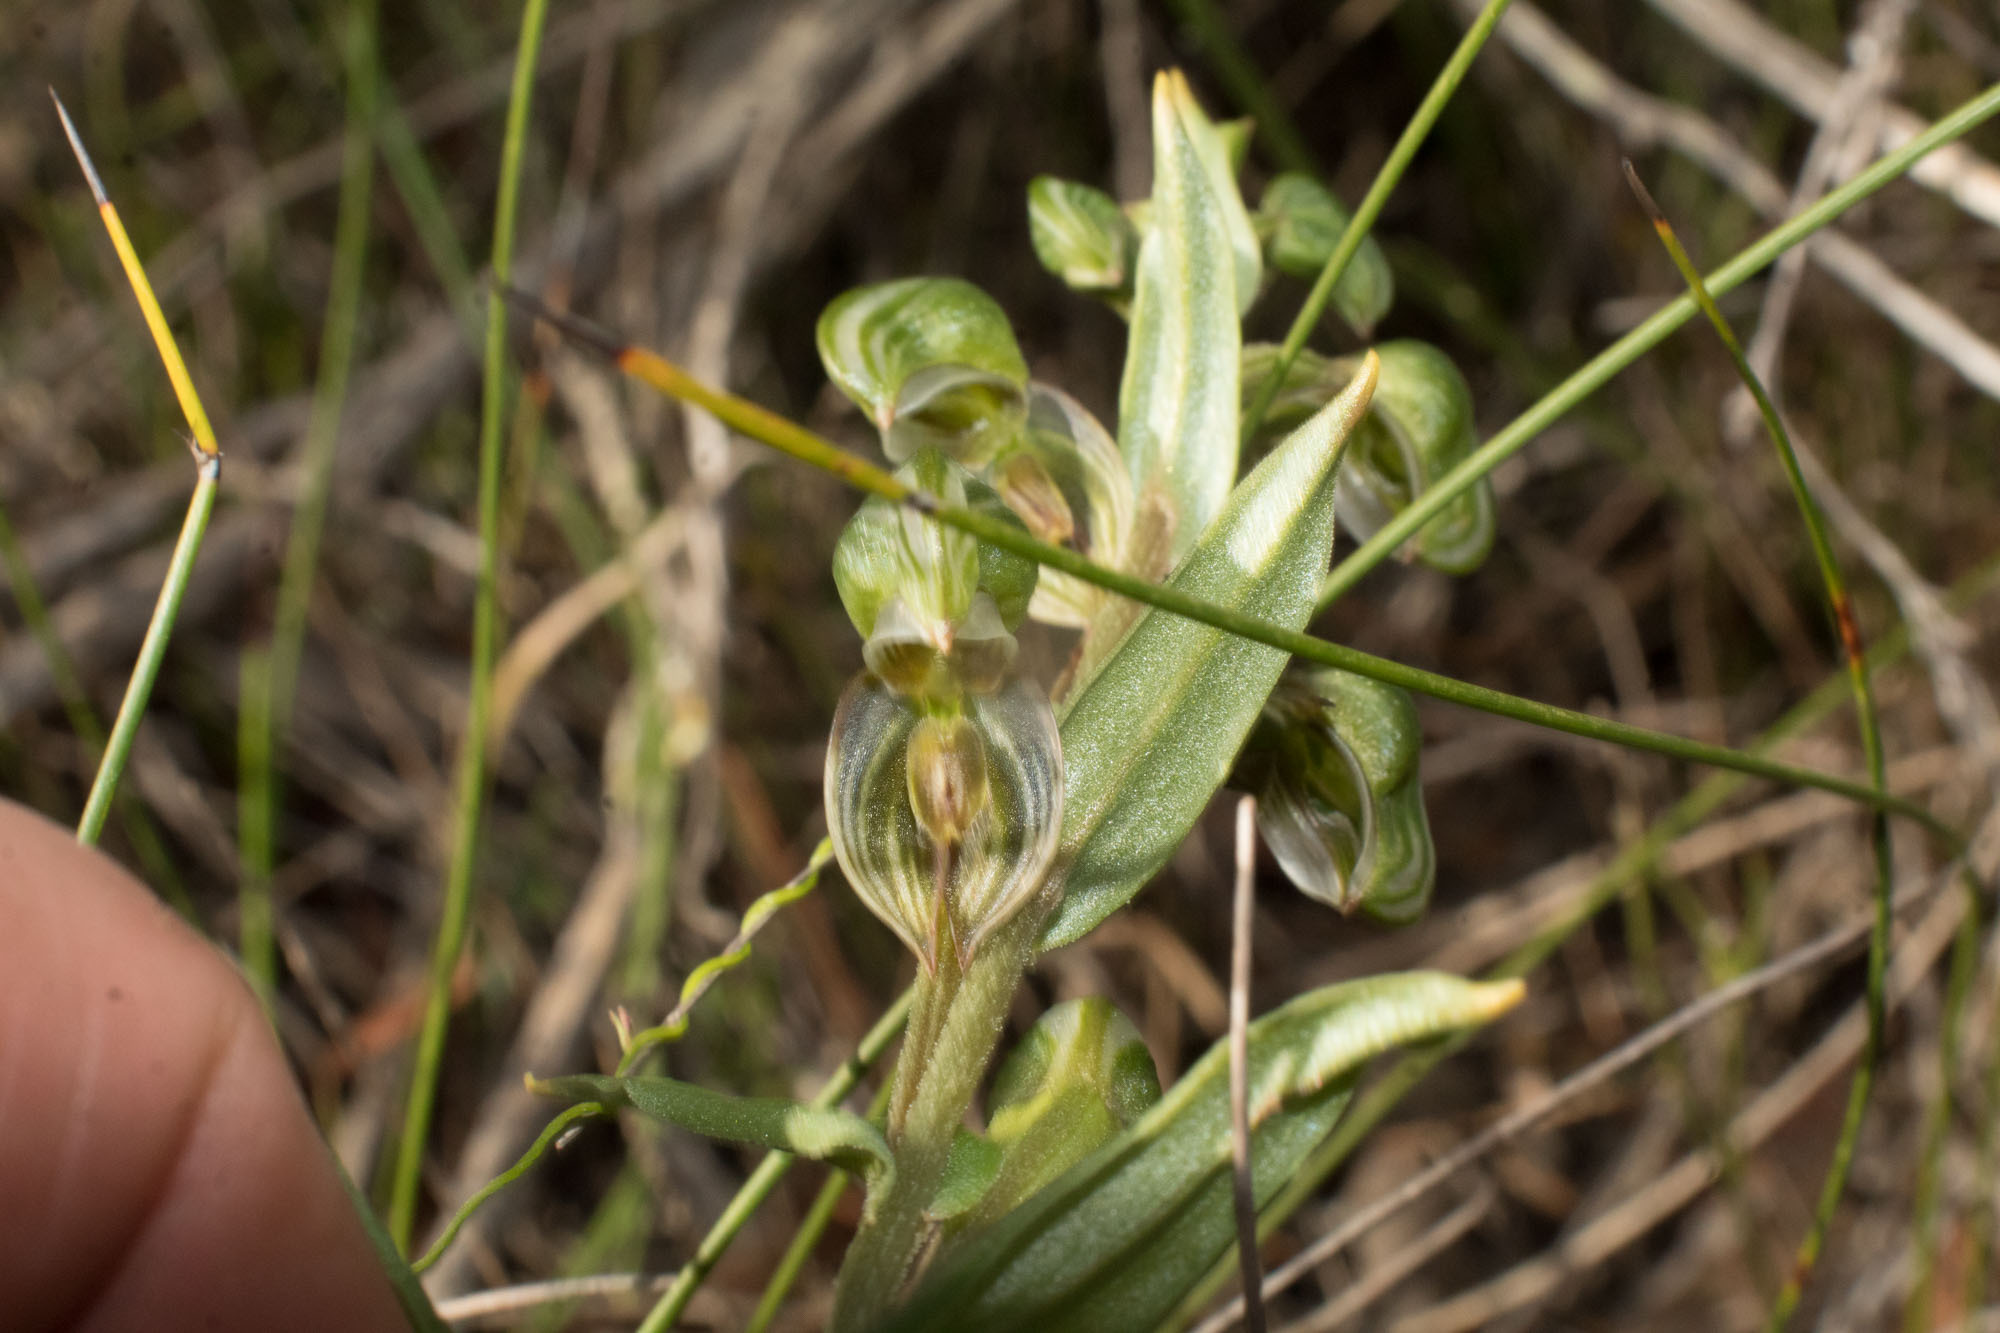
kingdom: Plantae
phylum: Tracheophyta
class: Liliopsida
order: Asparagales
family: Orchidaceae
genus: Pterostylis
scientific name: Pterostylis vittata
